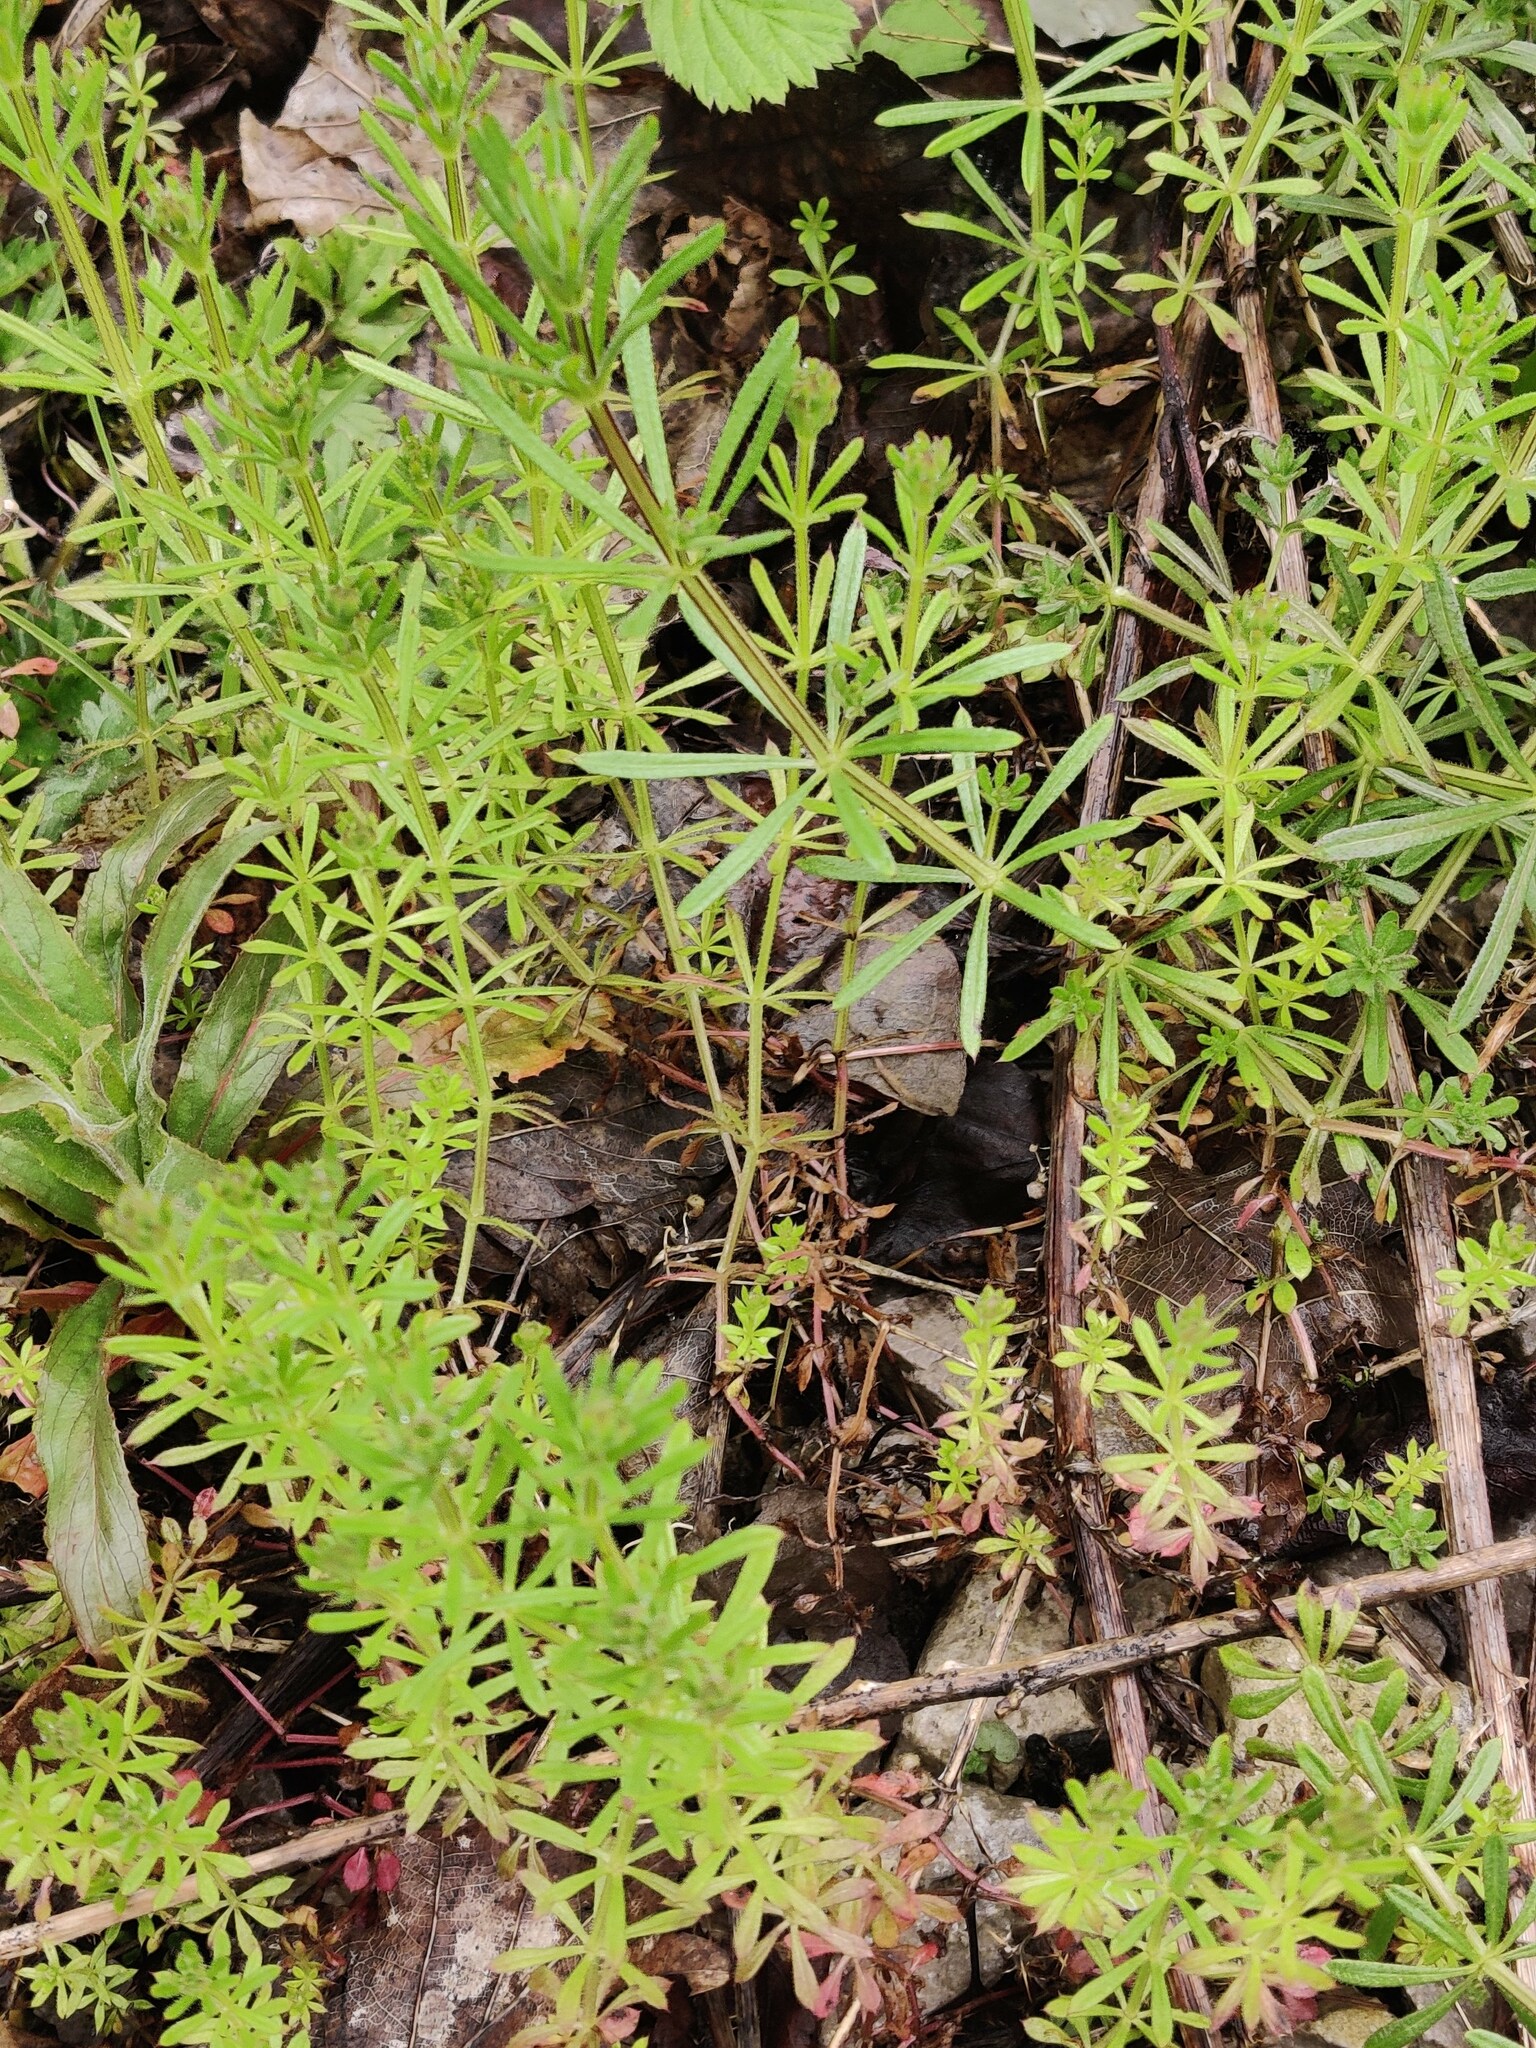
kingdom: Plantae
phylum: Tracheophyta
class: Magnoliopsida
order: Gentianales
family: Rubiaceae
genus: Galium
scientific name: Galium aparine
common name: Cleavers
